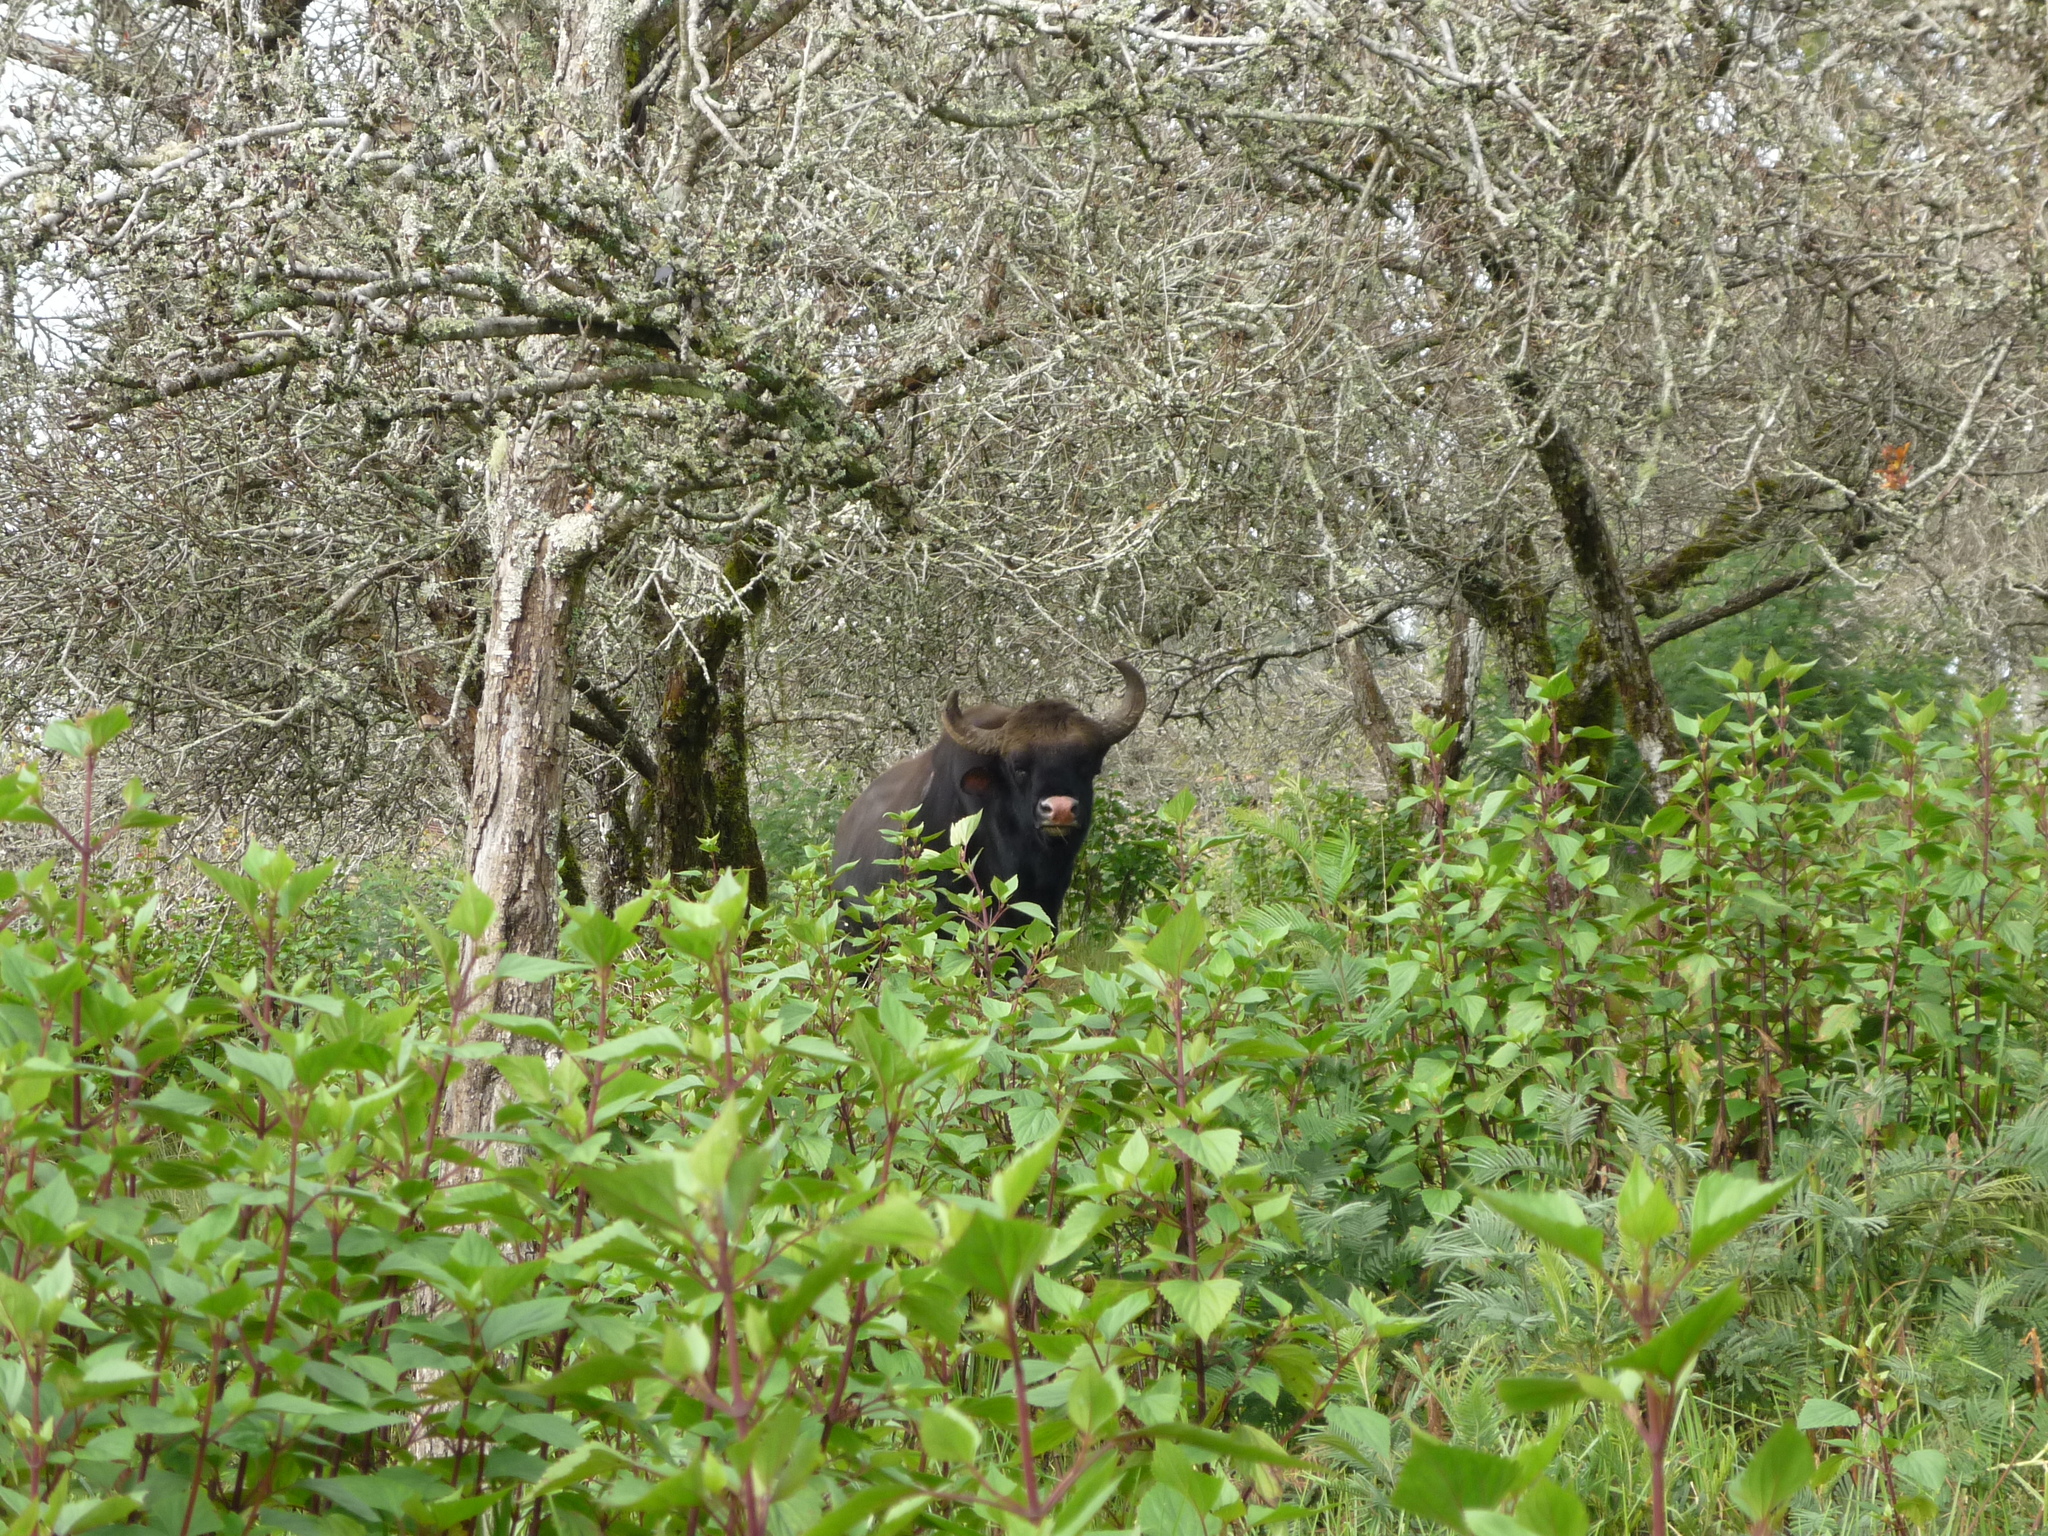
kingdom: Animalia
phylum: Chordata
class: Mammalia
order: Artiodactyla
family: Bovidae
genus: Bos
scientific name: Bos frontalis
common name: Gaur
